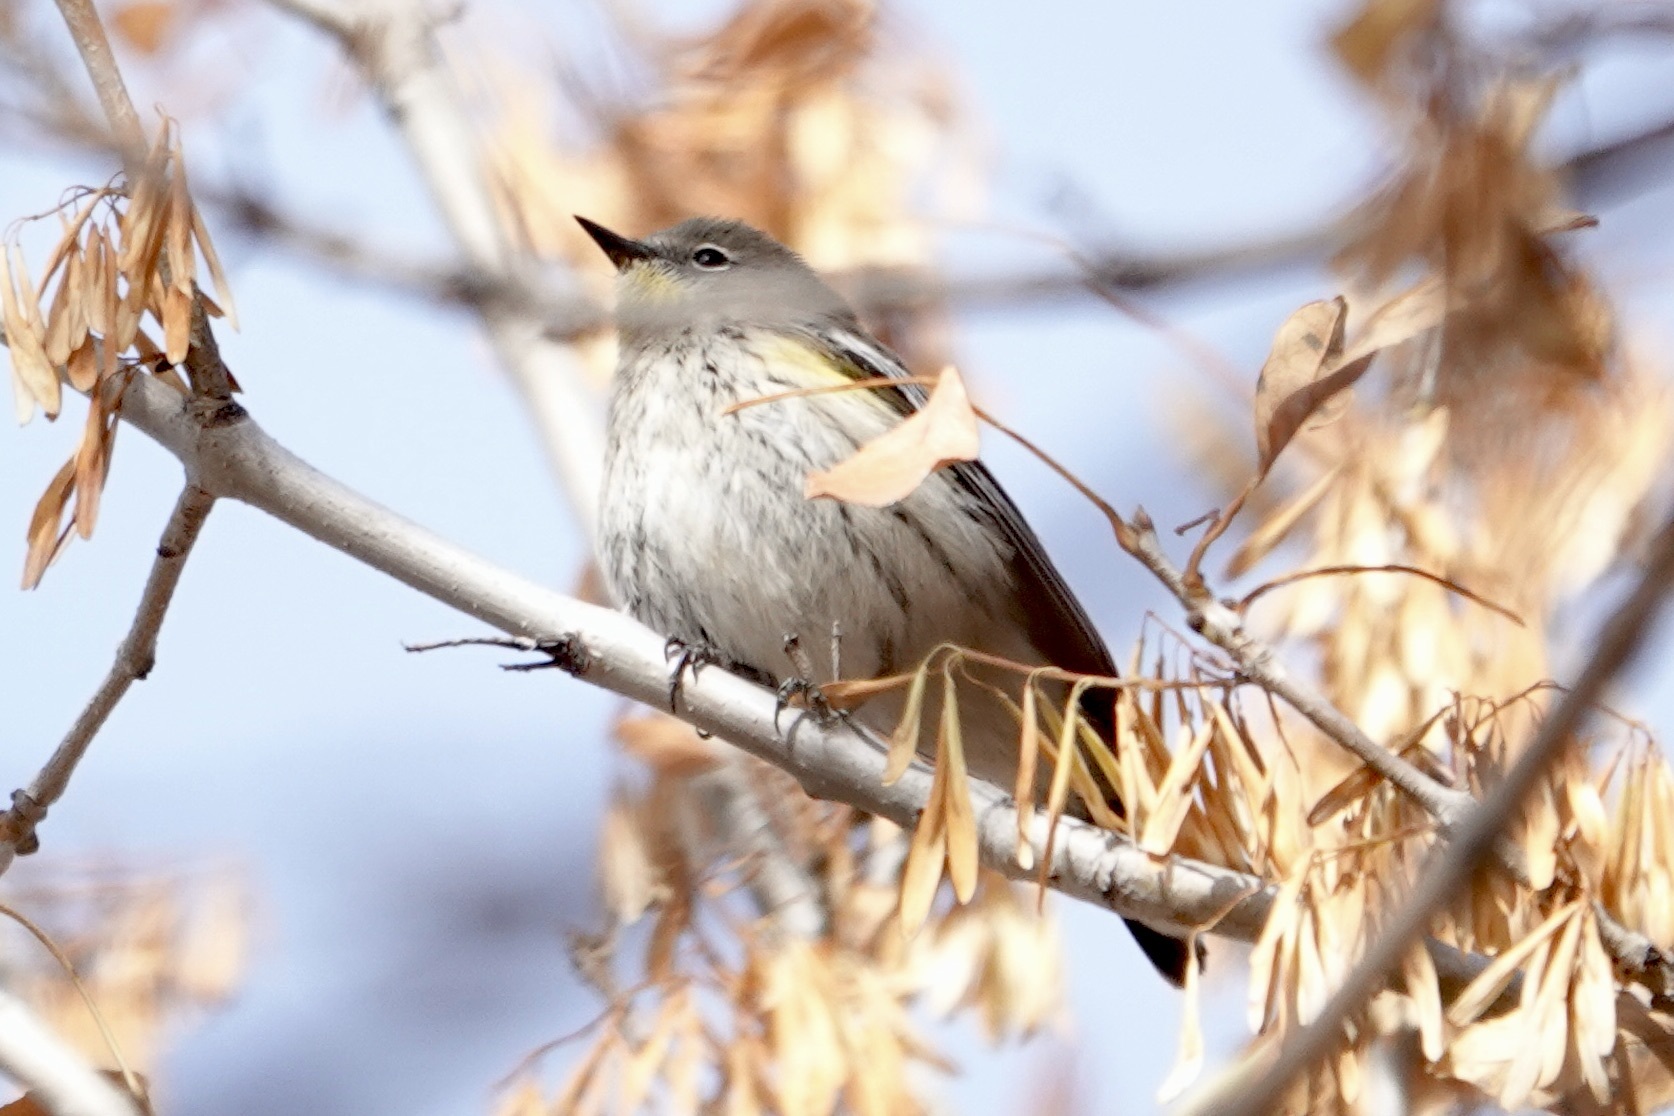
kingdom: Animalia
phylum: Chordata
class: Aves
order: Passeriformes
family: Parulidae
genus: Setophaga
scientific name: Setophaga coronata
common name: Myrtle warbler
